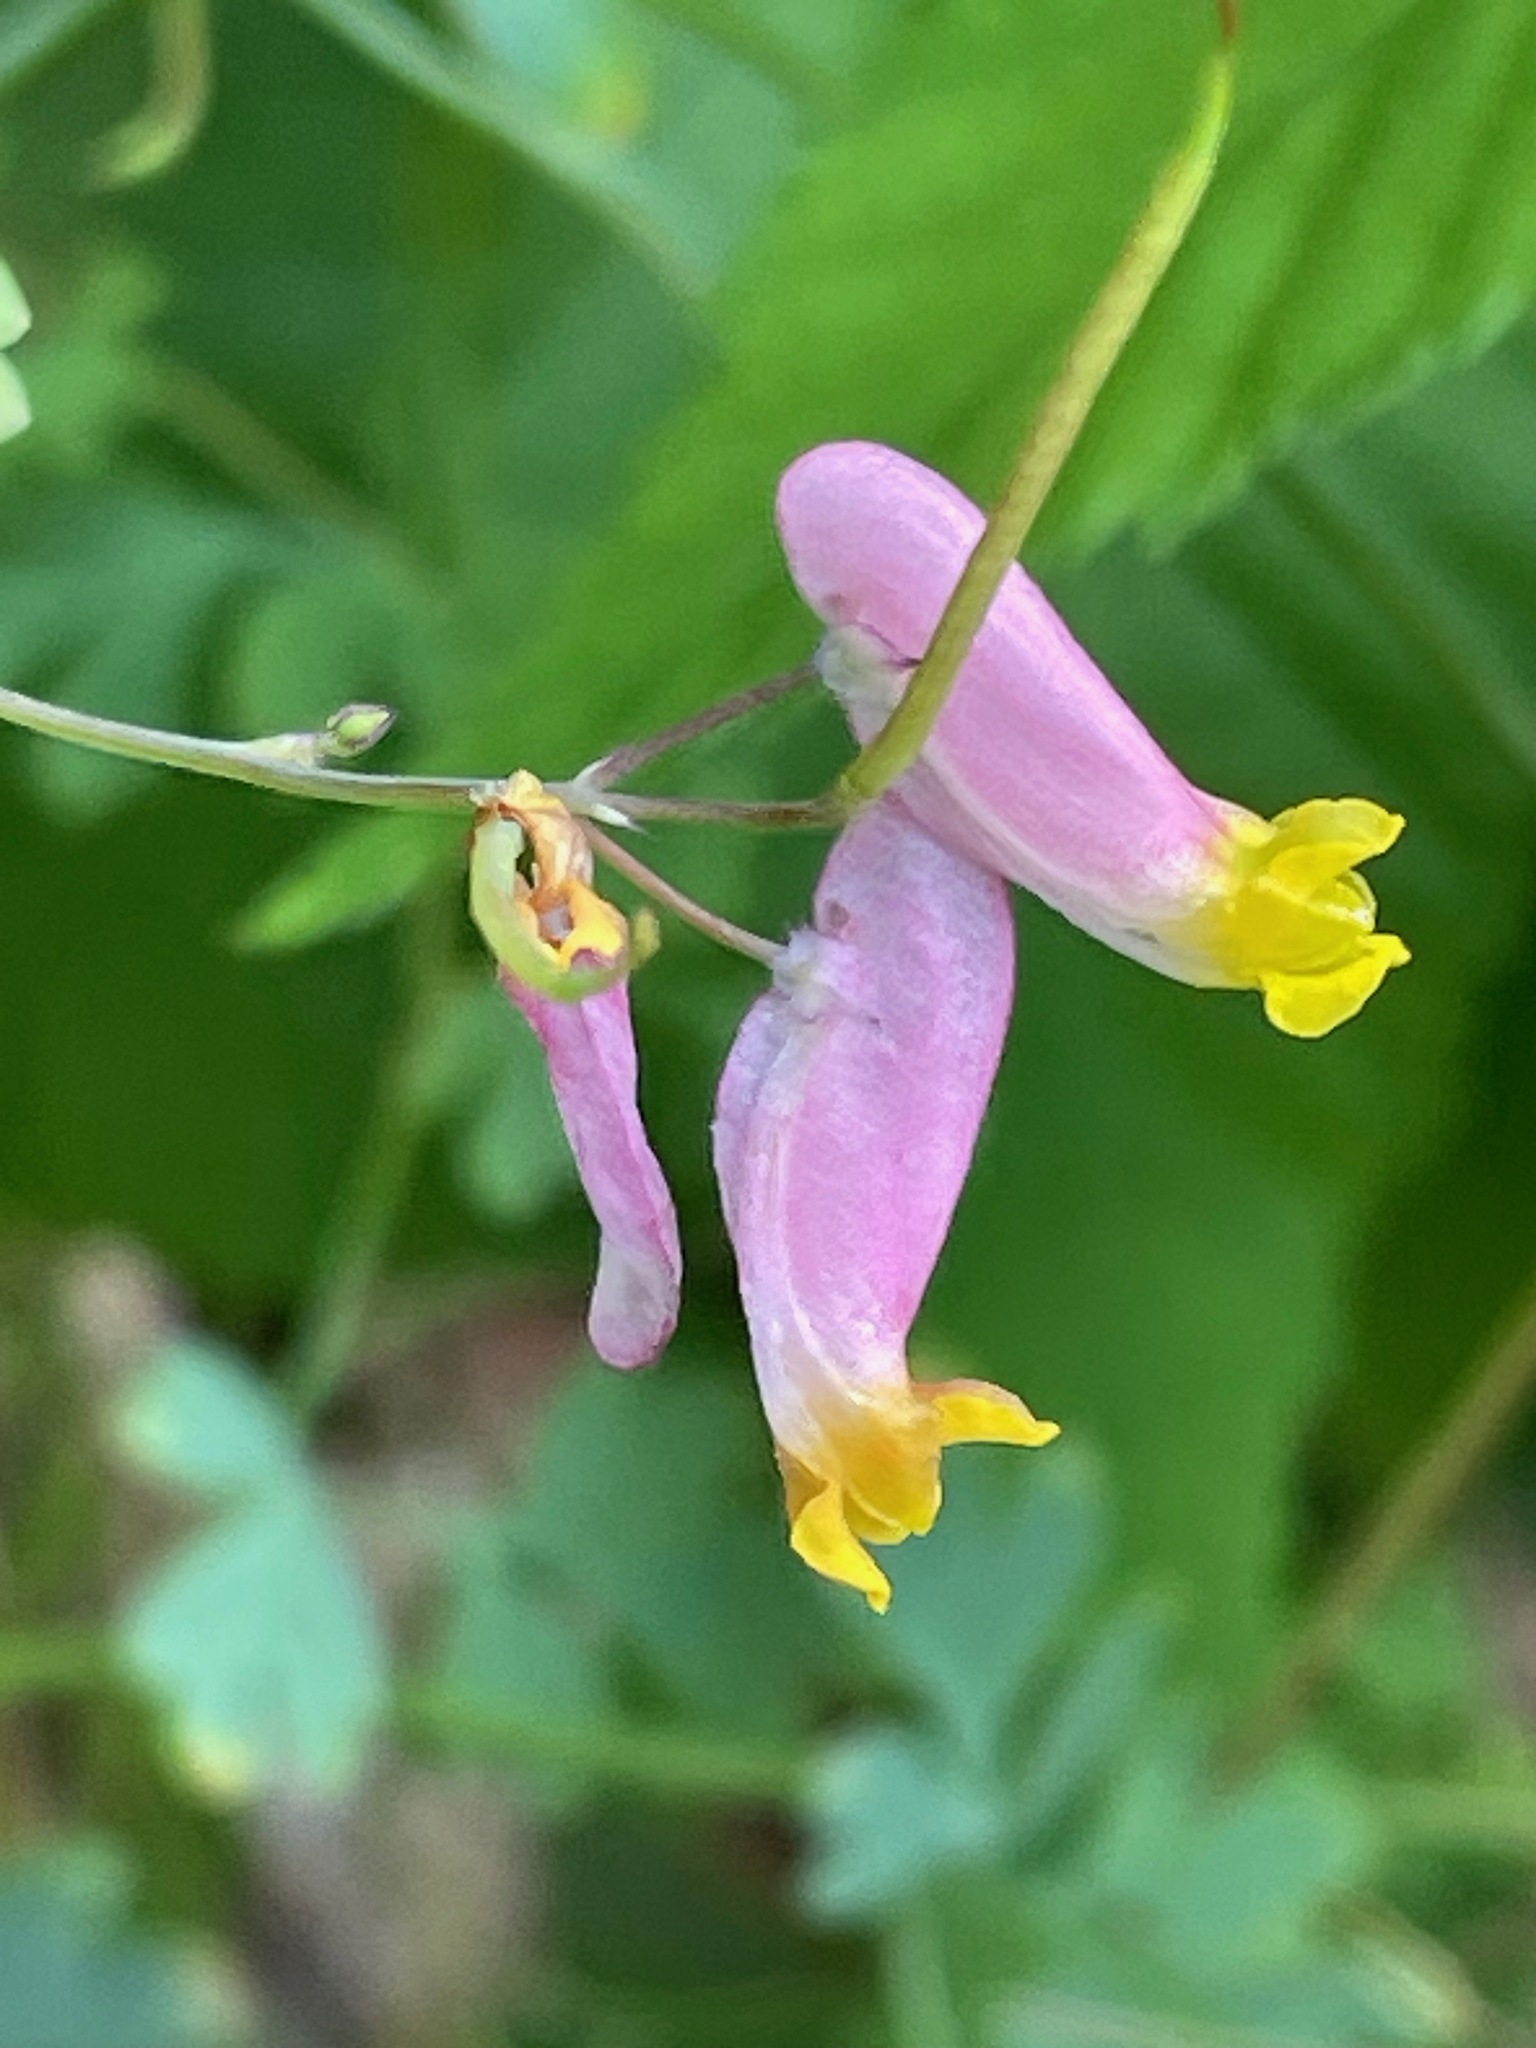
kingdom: Plantae
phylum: Tracheophyta
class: Magnoliopsida
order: Ranunculales
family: Papaveraceae
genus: Capnoides
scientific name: Capnoides sempervirens
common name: Rock harlequin
